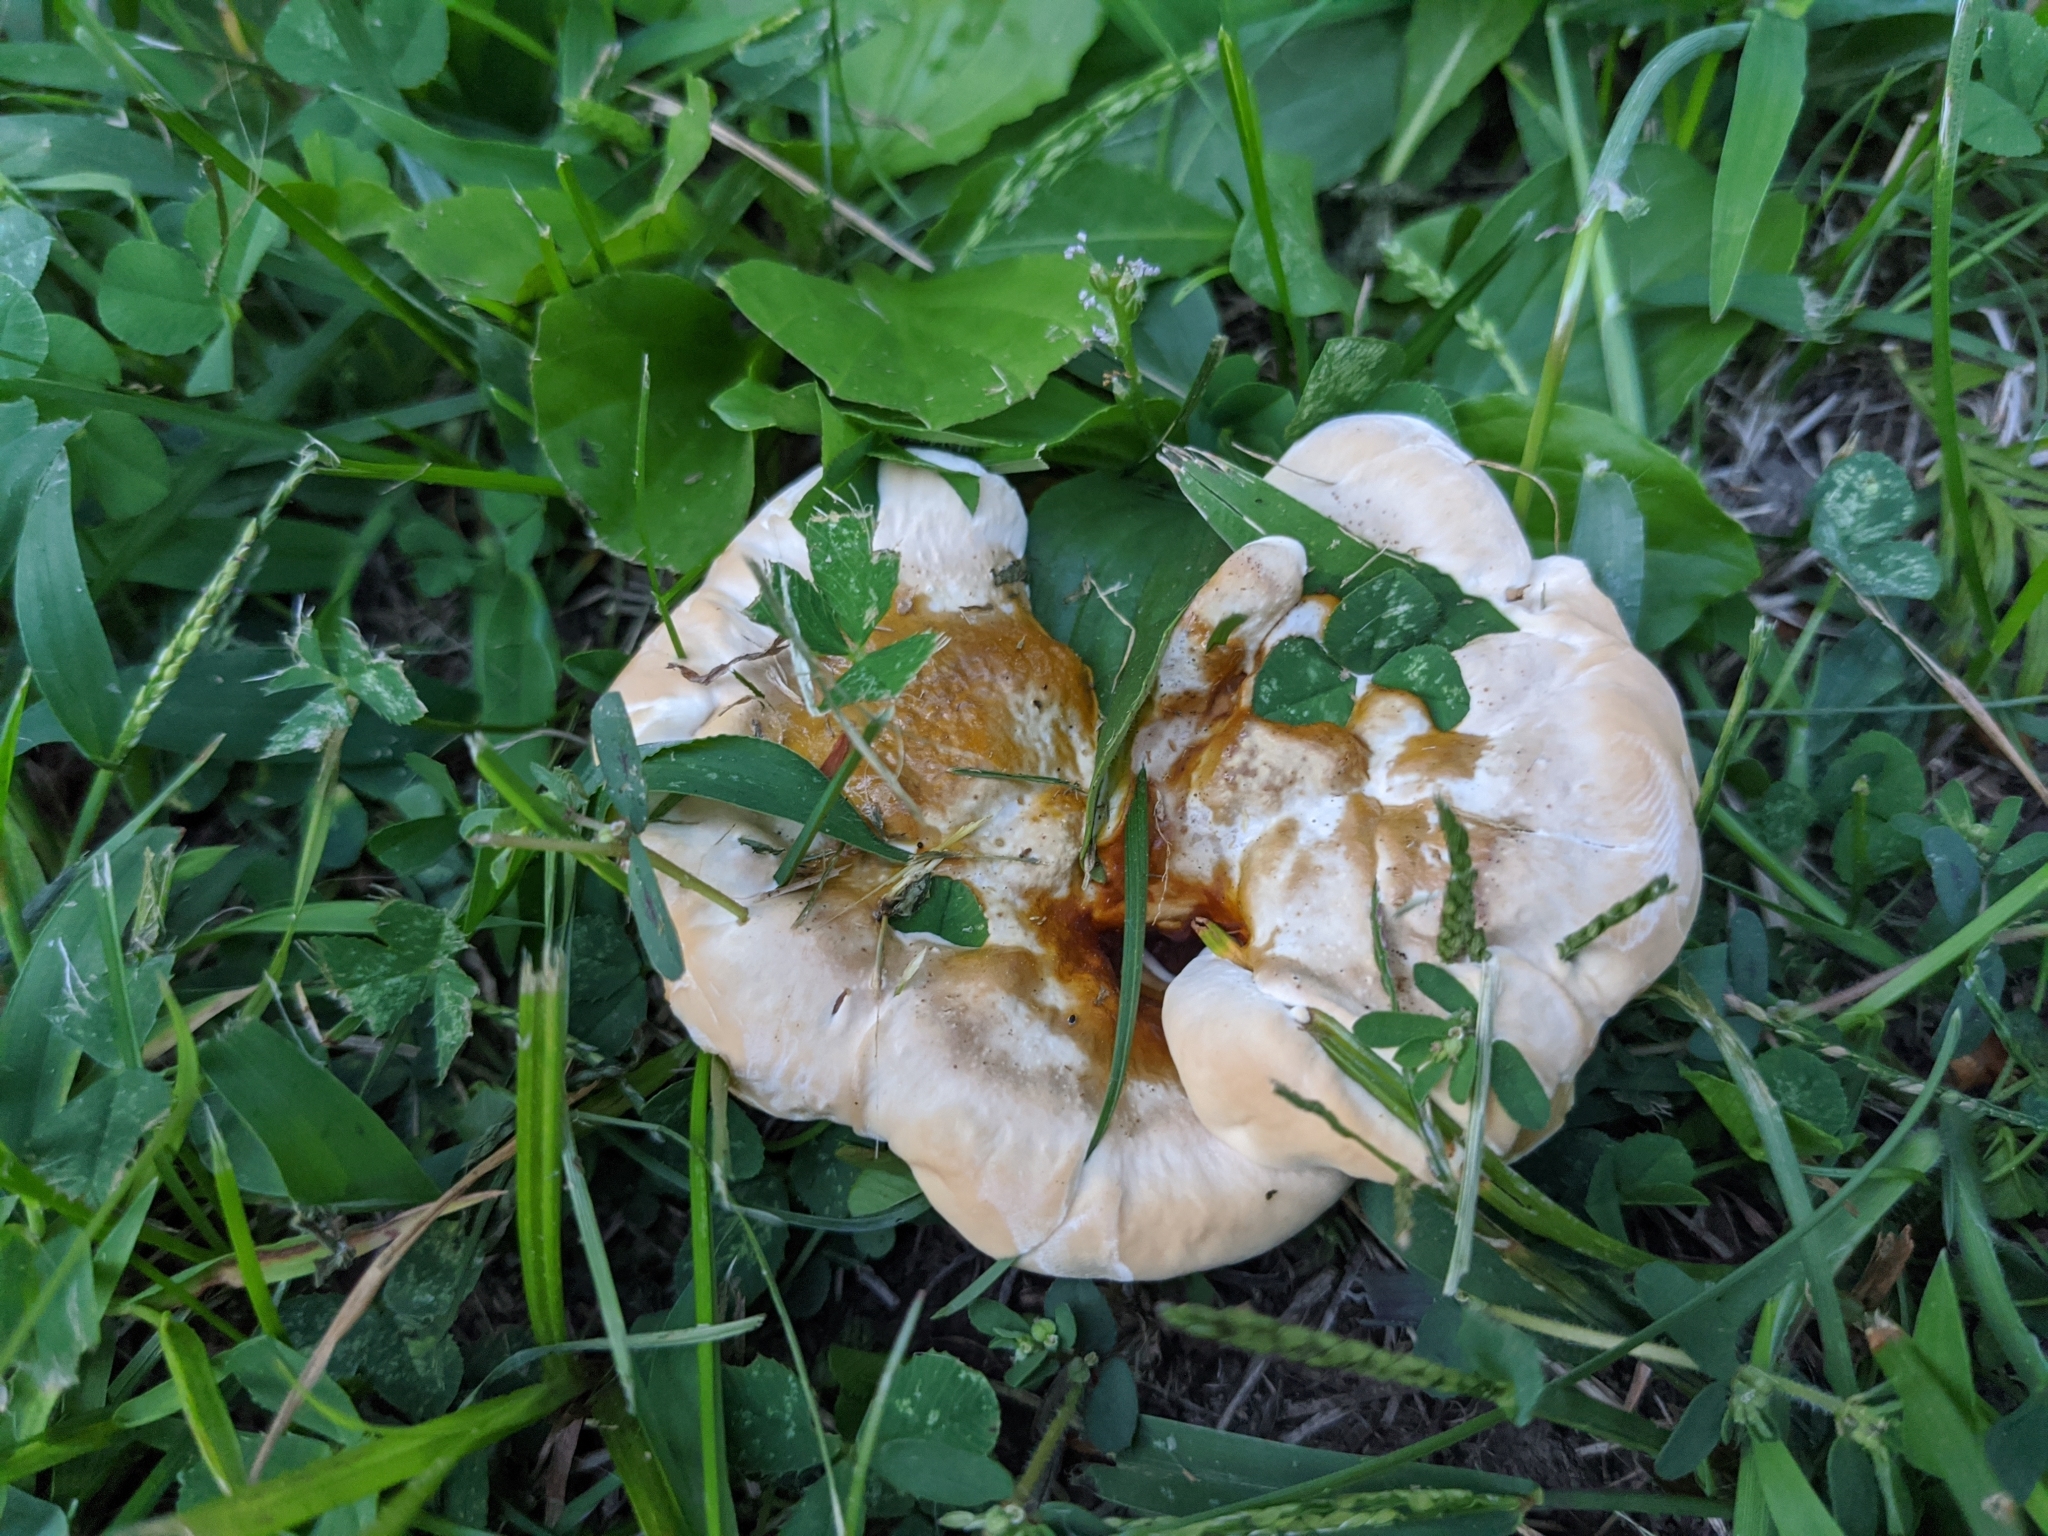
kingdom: Fungi
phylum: Basidiomycota
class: Agaricomycetes
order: Polyporales
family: Podoscyphaceae
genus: Abortiporus
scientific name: Abortiporus biennis
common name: Blushing rosette
